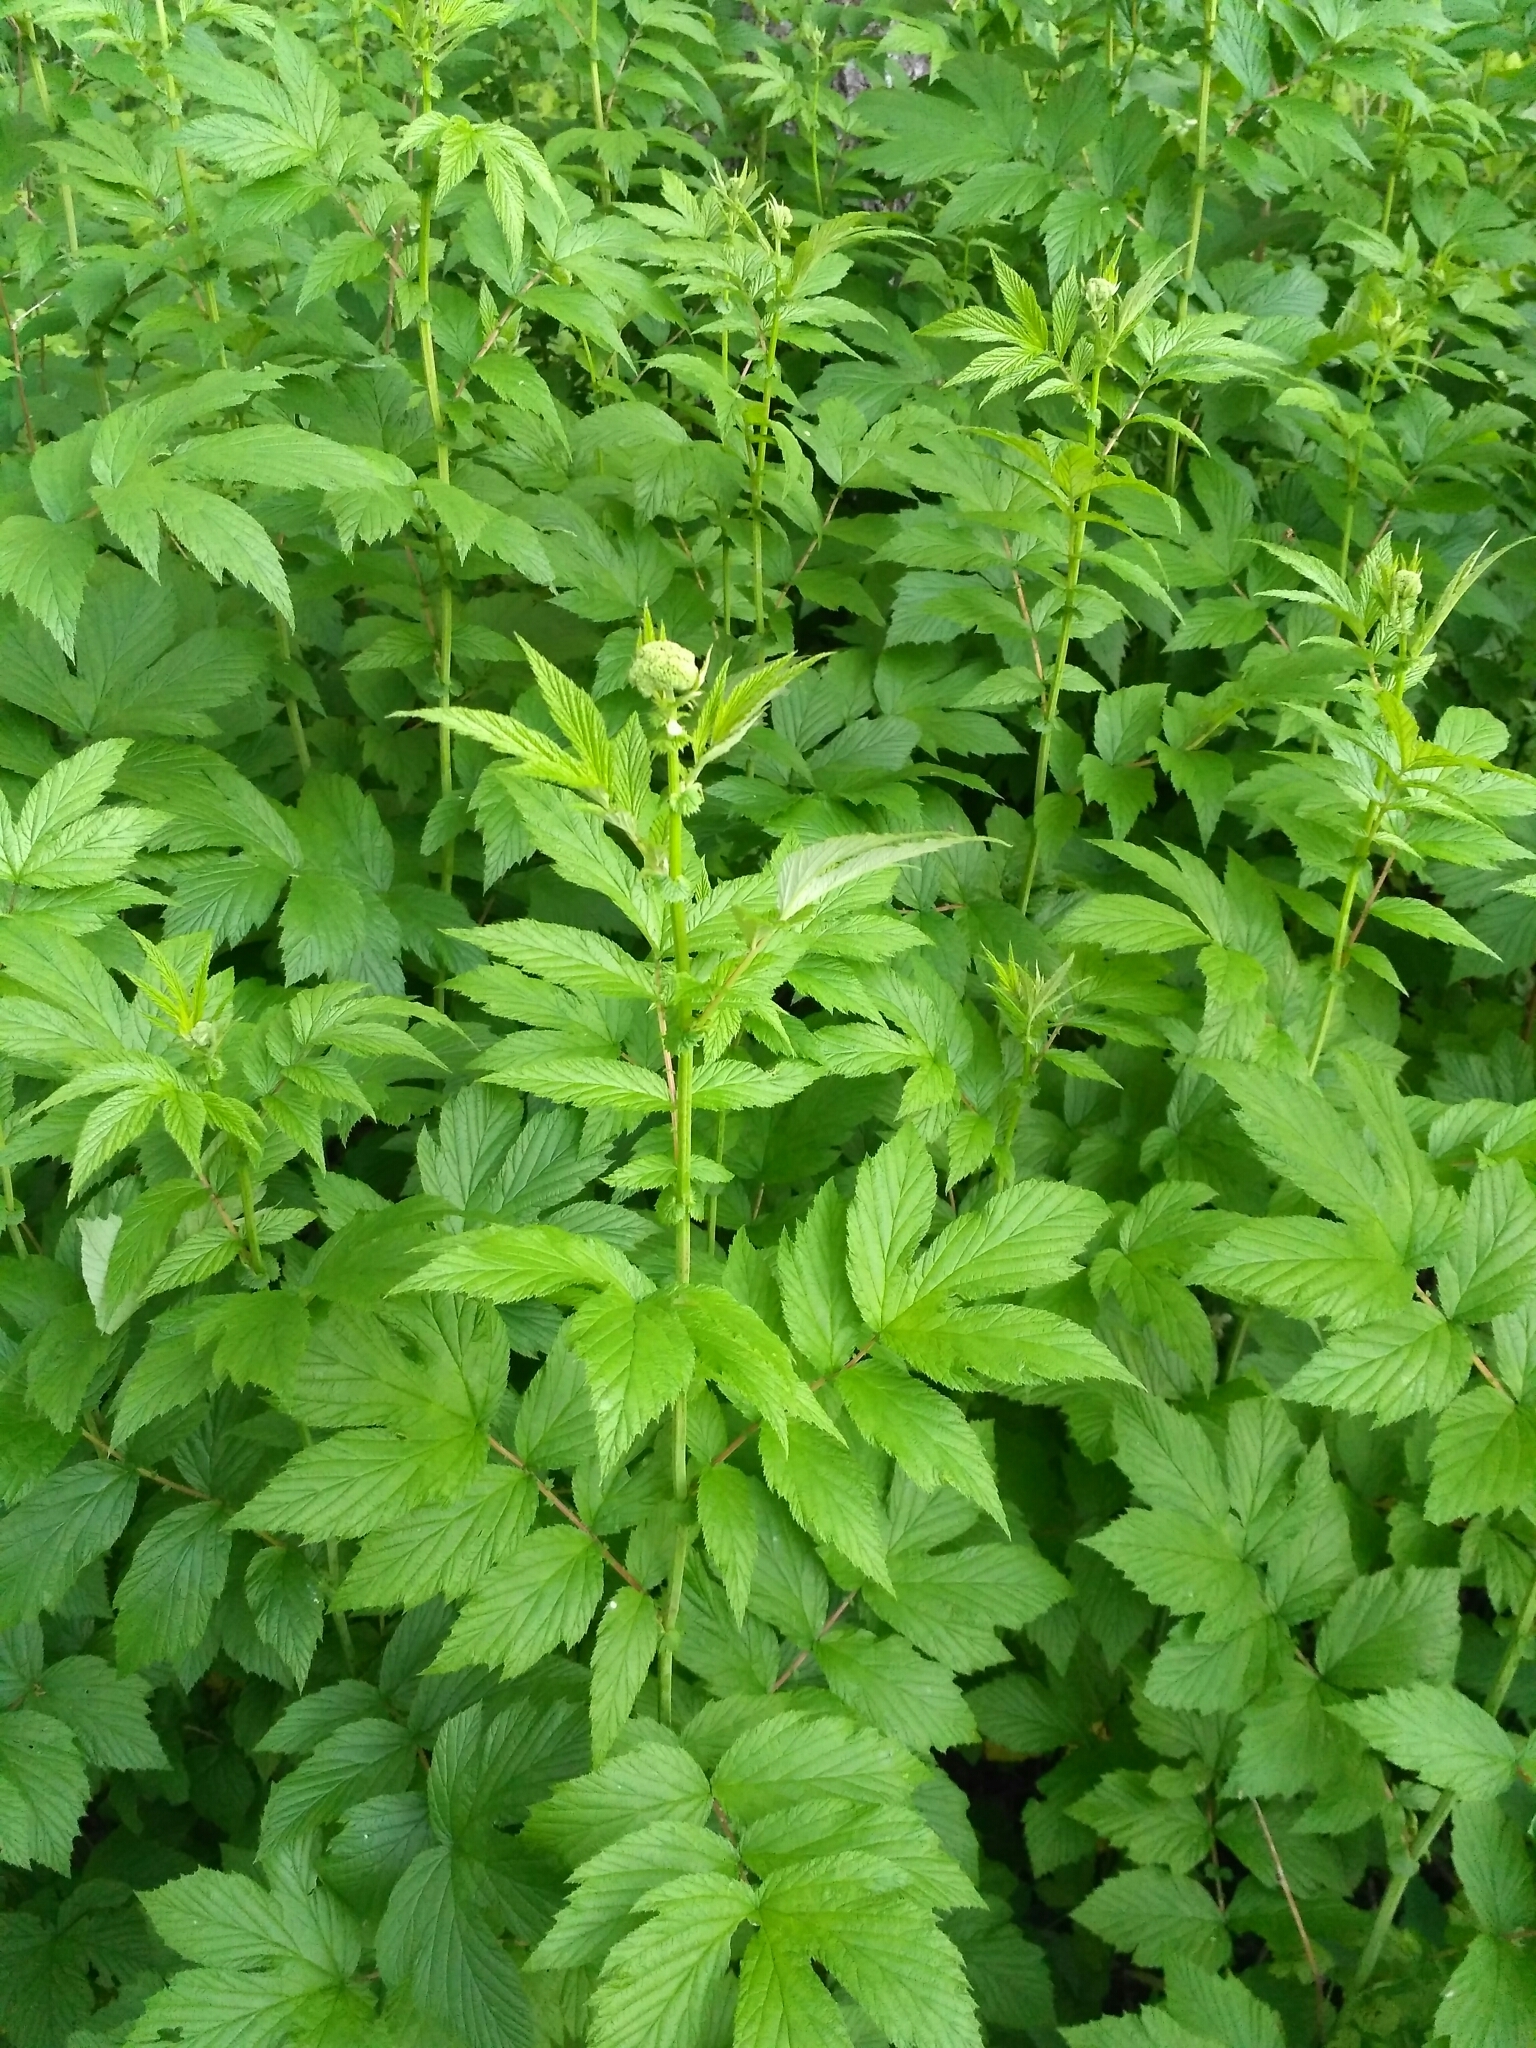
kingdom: Plantae
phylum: Tracheophyta
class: Magnoliopsida
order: Rosales
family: Rosaceae
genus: Filipendula
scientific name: Filipendula ulmaria
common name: Meadowsweet
